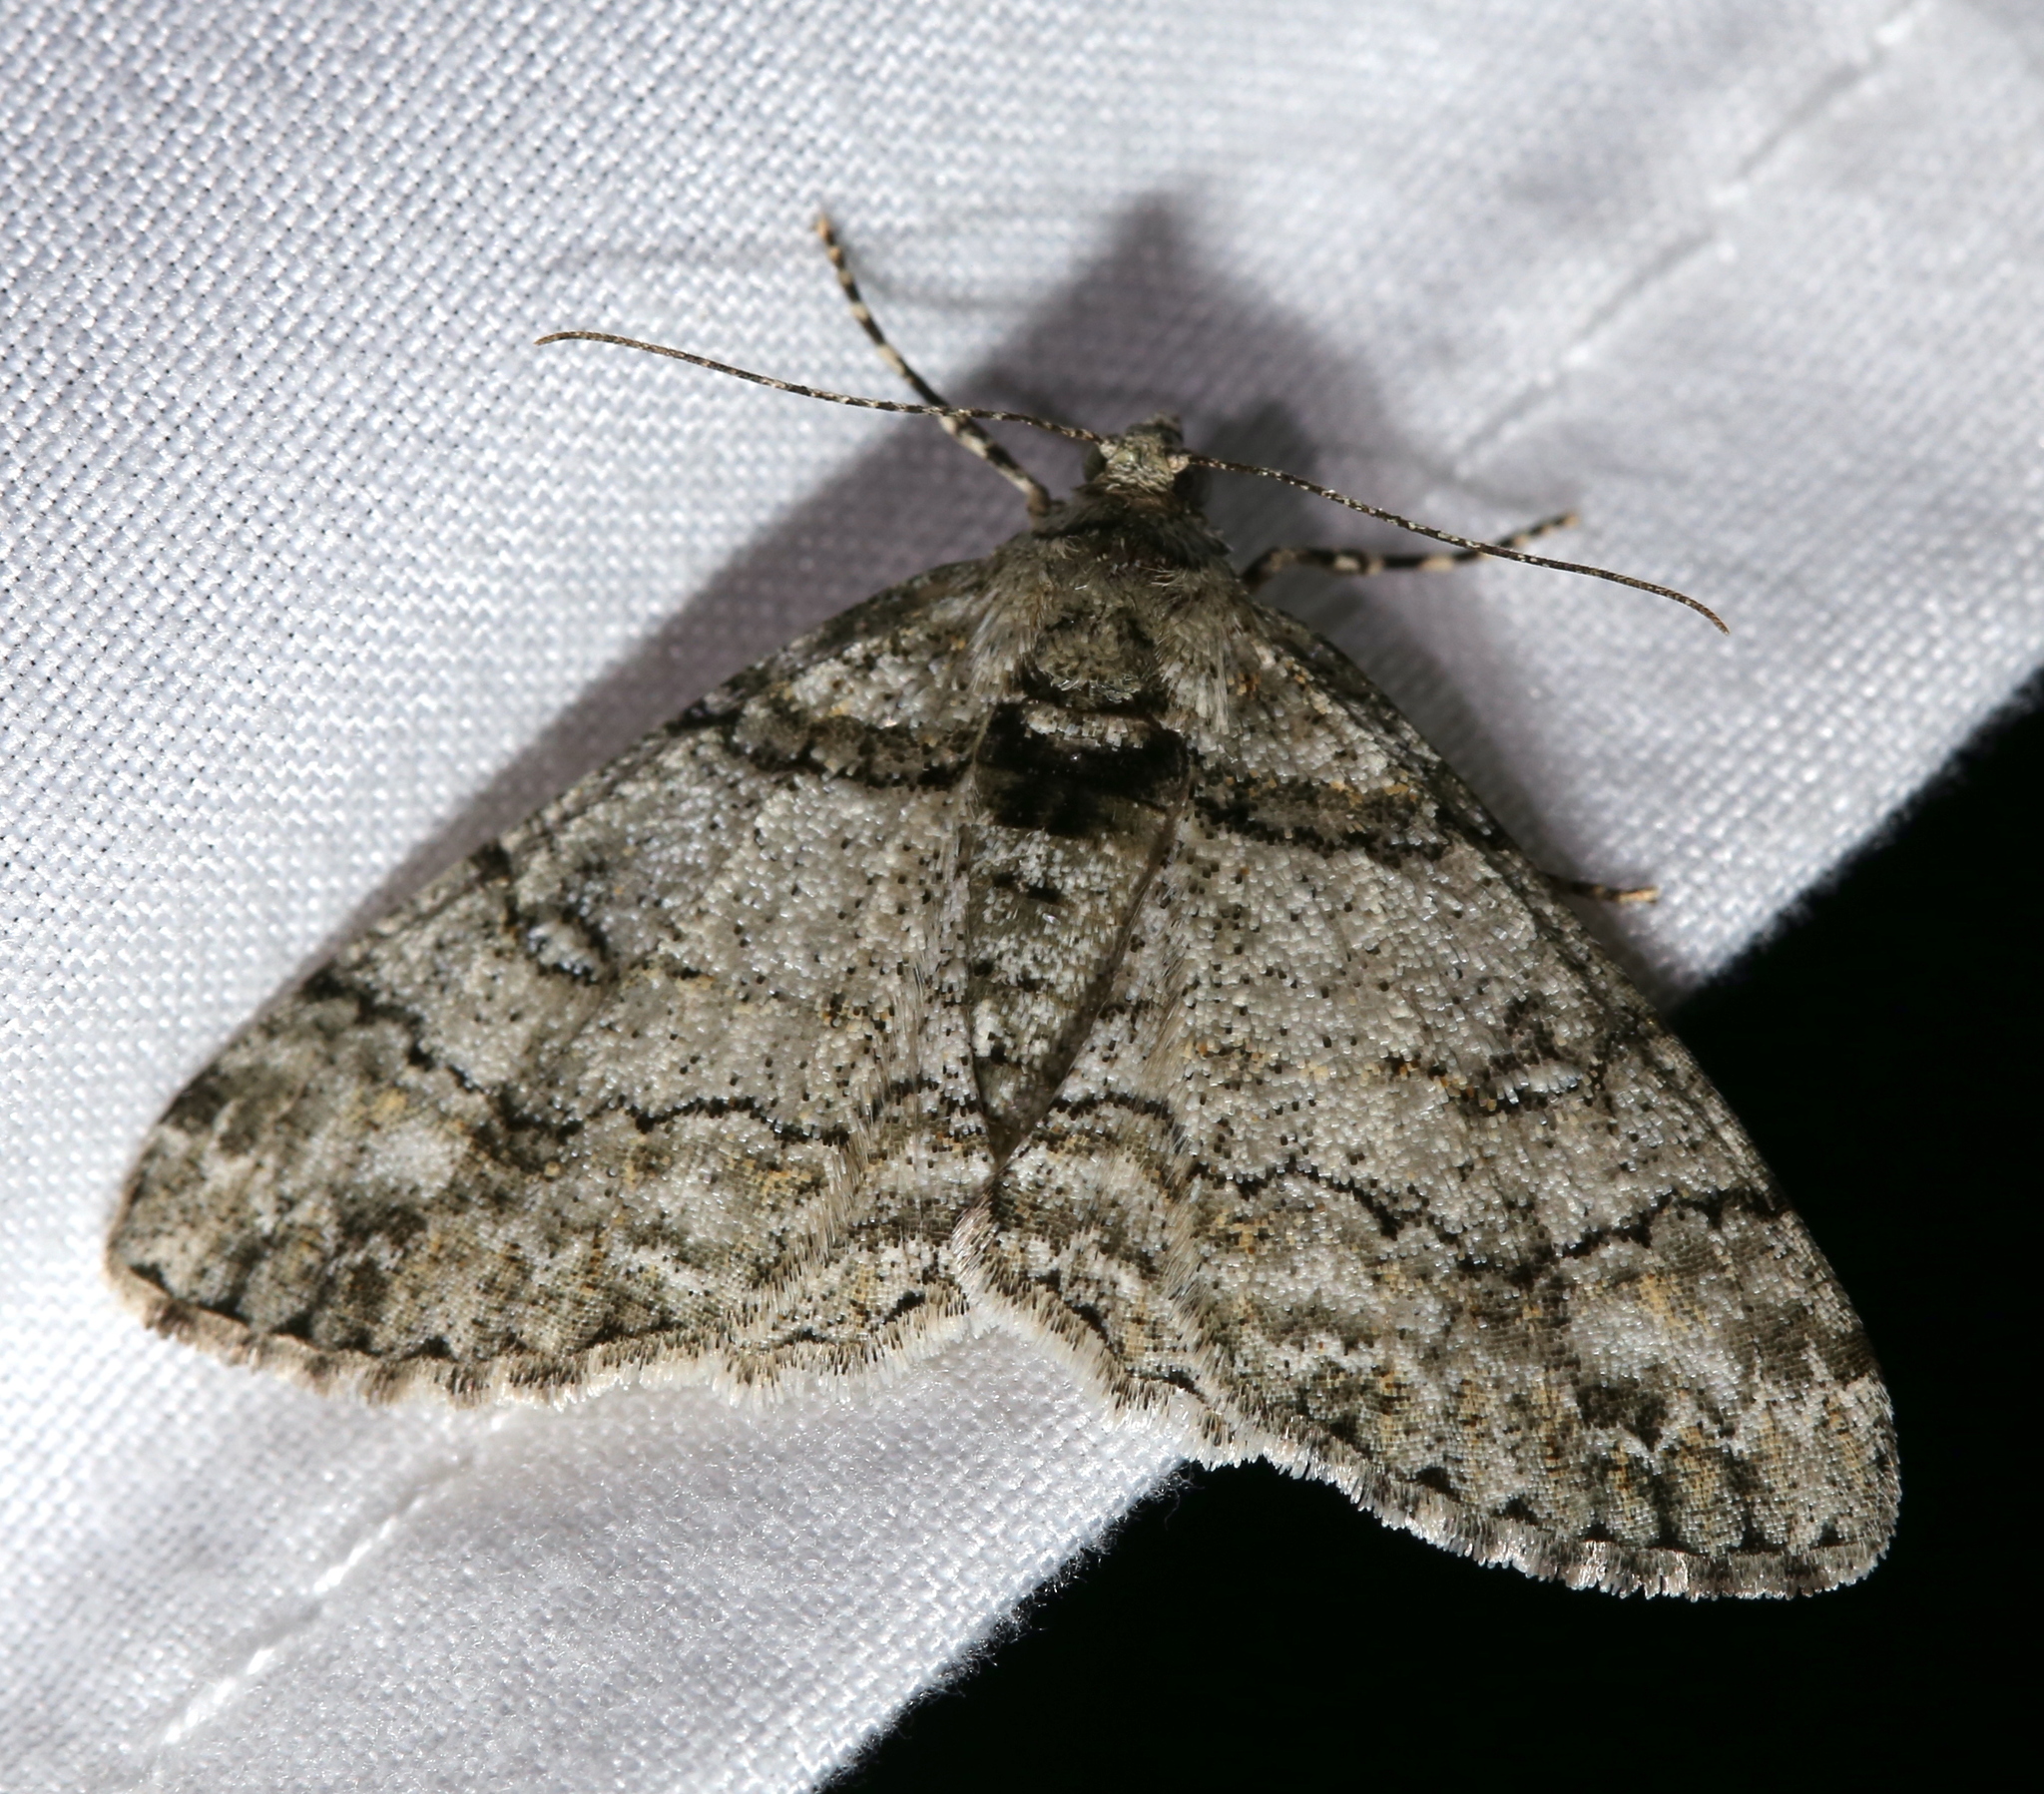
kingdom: Animalia
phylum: Arthropoda
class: Insecta
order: Lepidoptera
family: Geometridae
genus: Cleora
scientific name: Cleora sublunaria
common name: Double-lined gray
